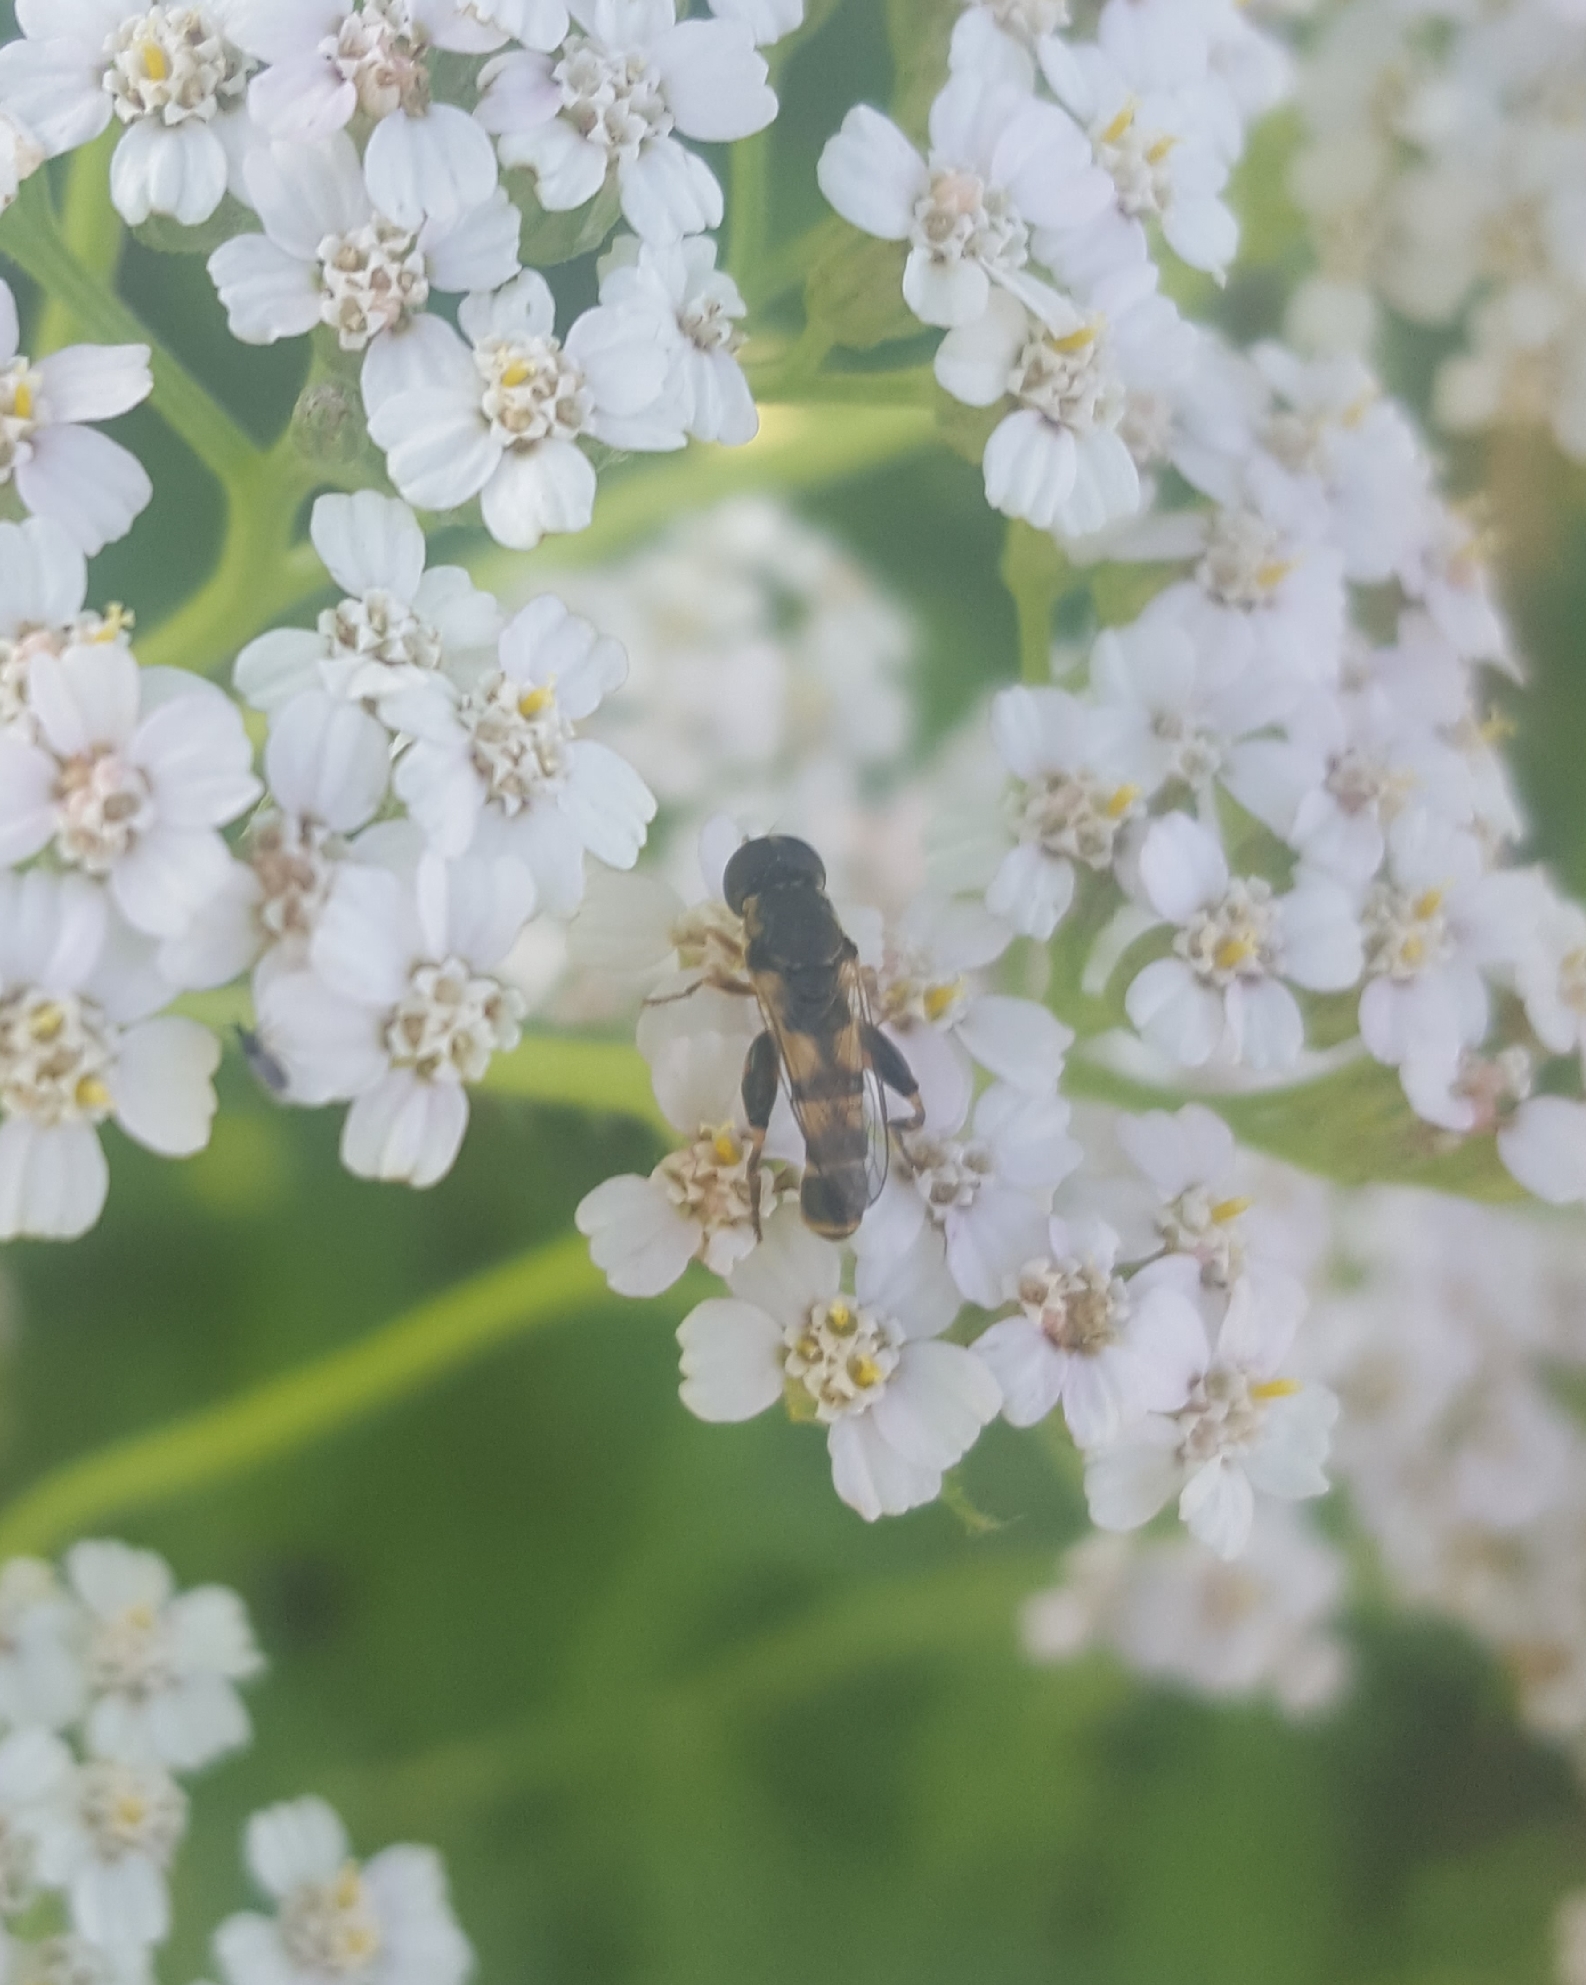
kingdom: Animalia
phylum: Arthropoda
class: Insecta
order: Diptera
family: Syrphidae
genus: Syritta
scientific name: Syritta pipiens
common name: Hover fly
